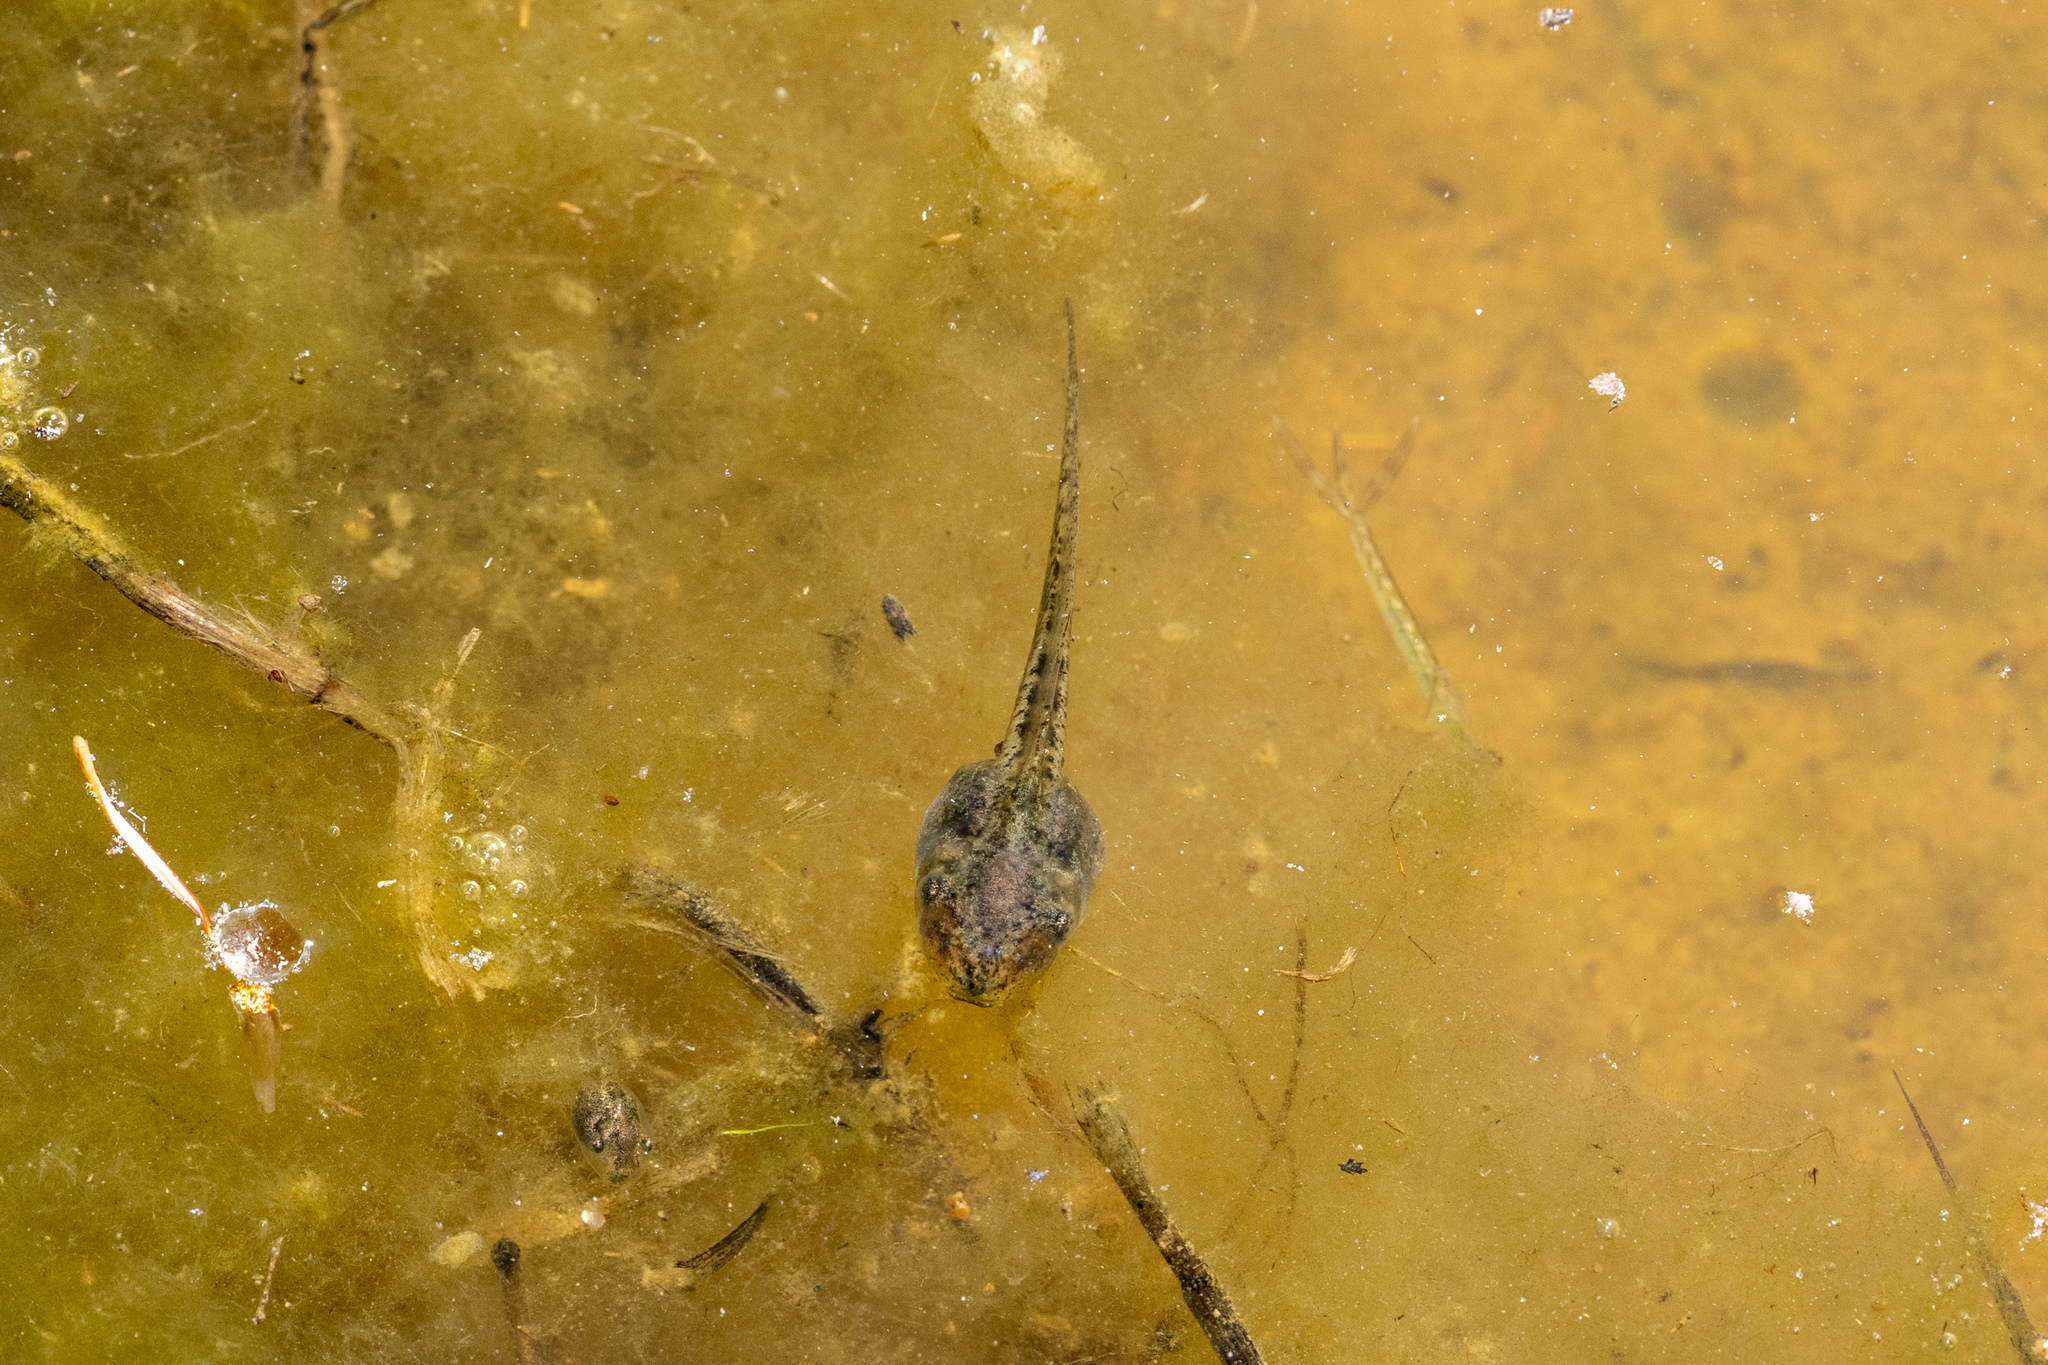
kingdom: Animalia
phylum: Chordata
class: Amphibia
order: Anura
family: Hylidae
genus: Pseudacris
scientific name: Pseudacris regilla
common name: Pacific chorus frog
